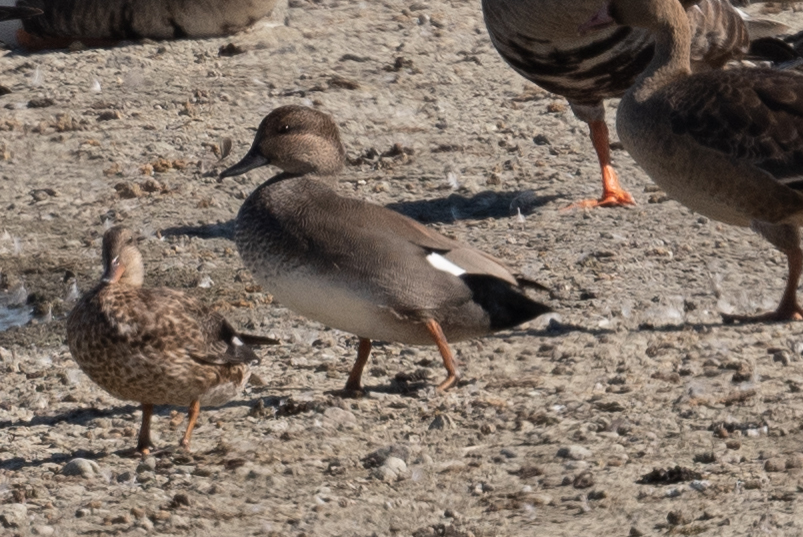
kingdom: Animalia
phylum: Chordata
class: Aves
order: Anseriformes
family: Anatidae
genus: Mareca
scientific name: Mareca strepera
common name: Gadwall
